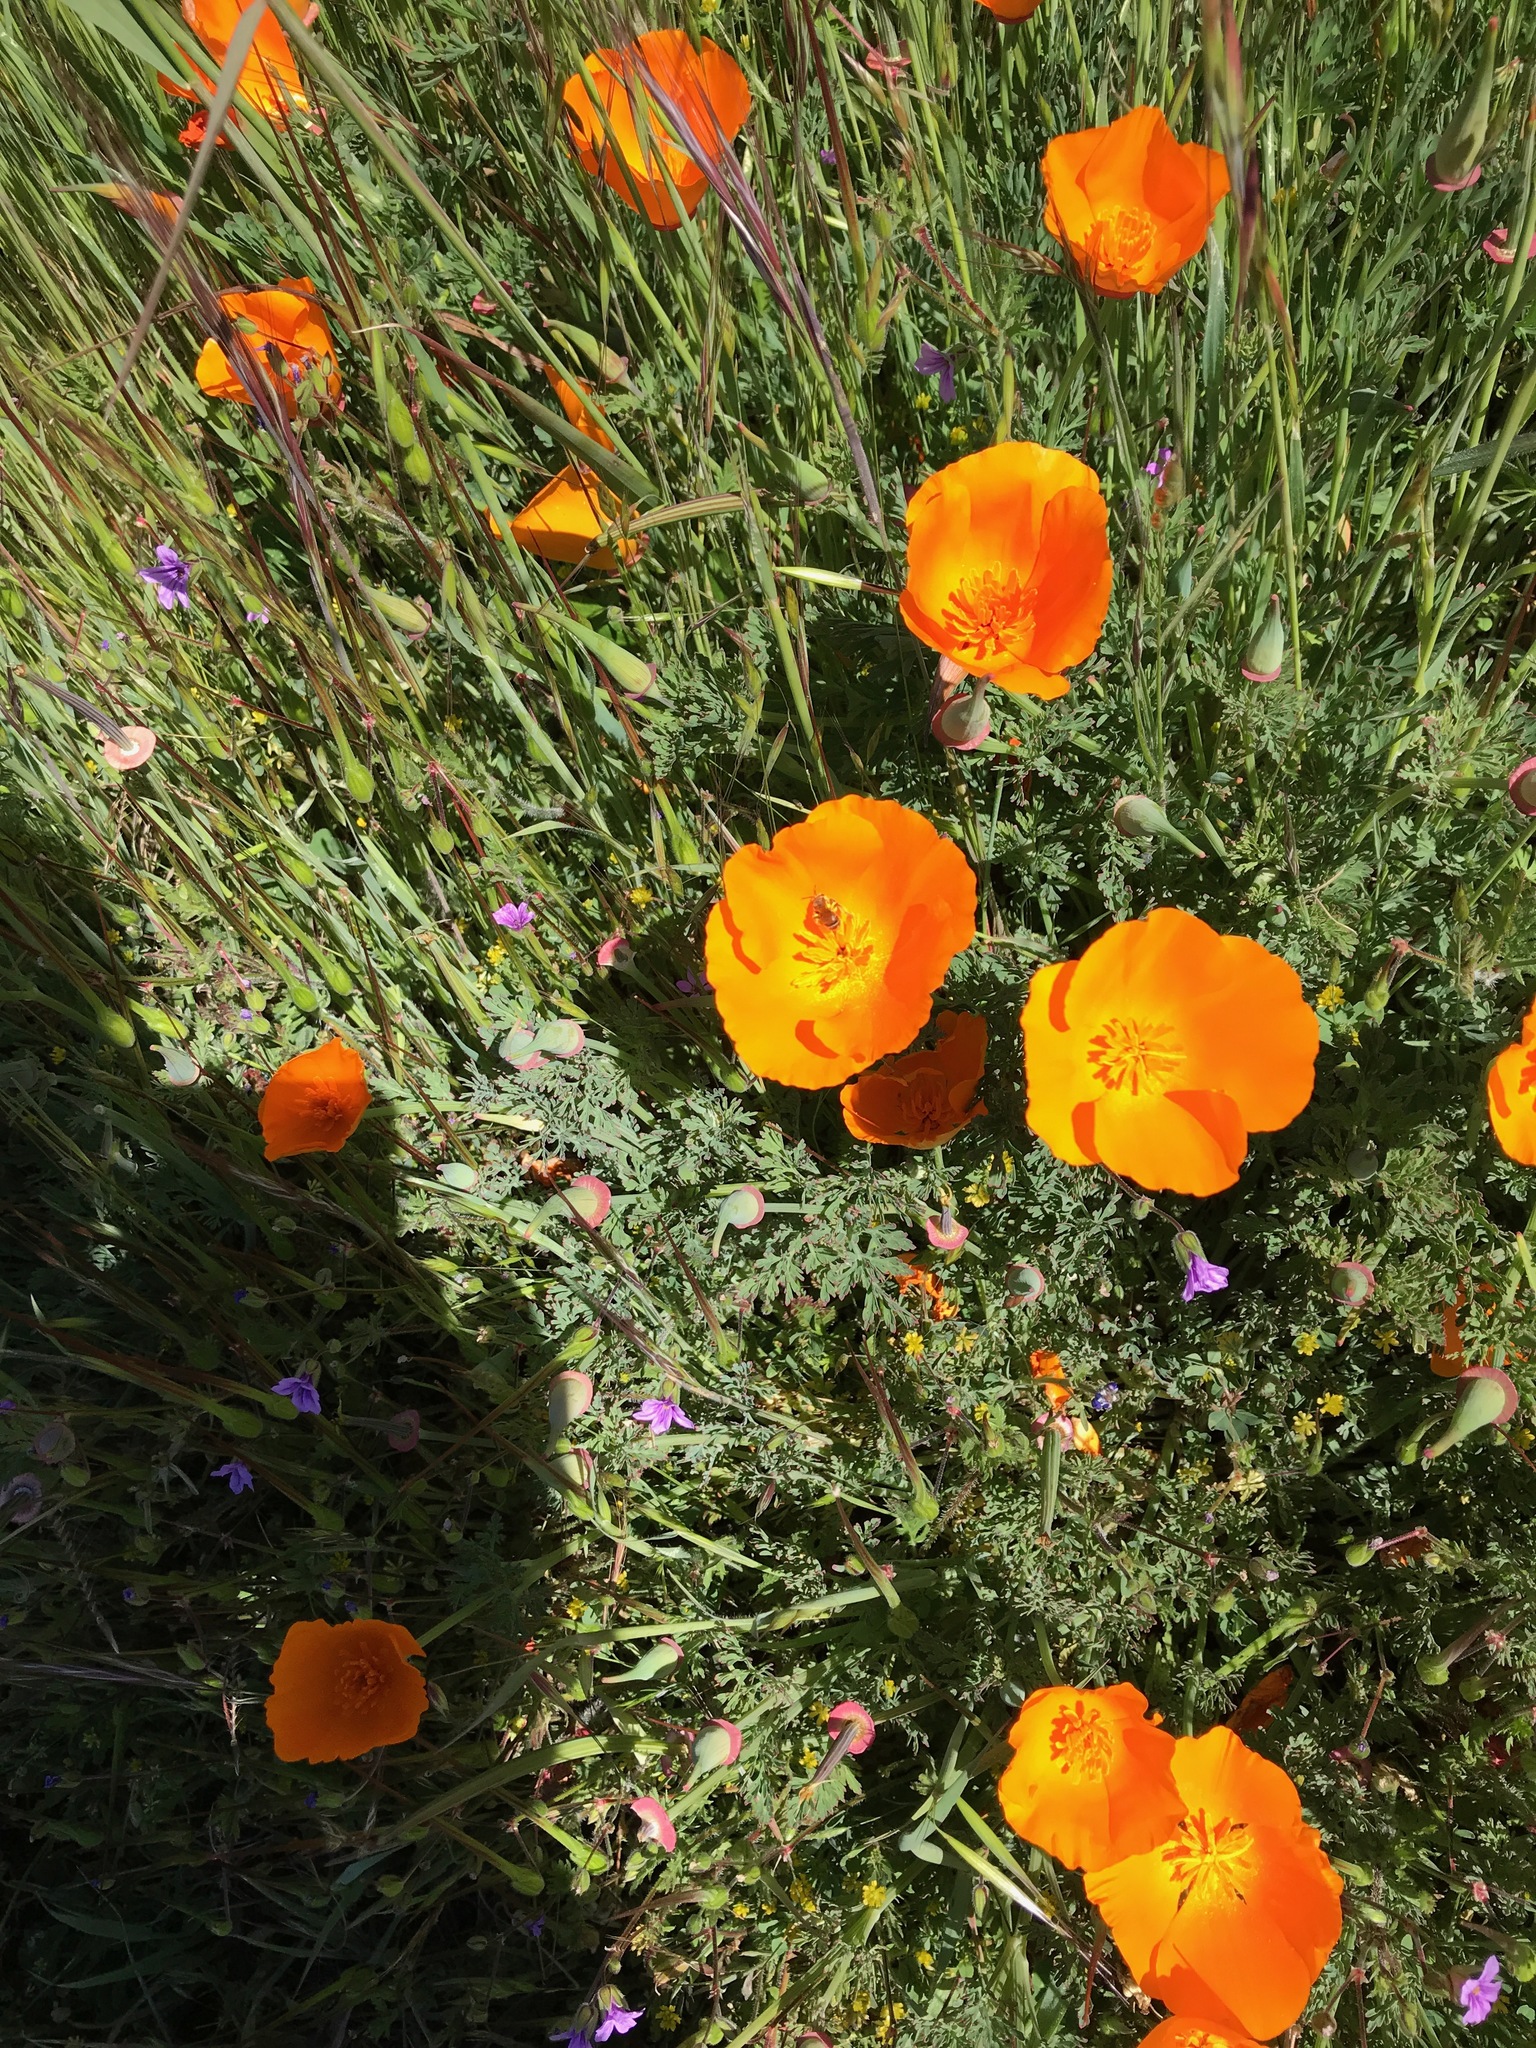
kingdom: Plantae
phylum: Tracheophyta
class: Magnoliopsida
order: Ranunculales
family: Papaveraceae
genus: Eschscholzia
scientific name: Eschscholzia californica
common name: California poppy
